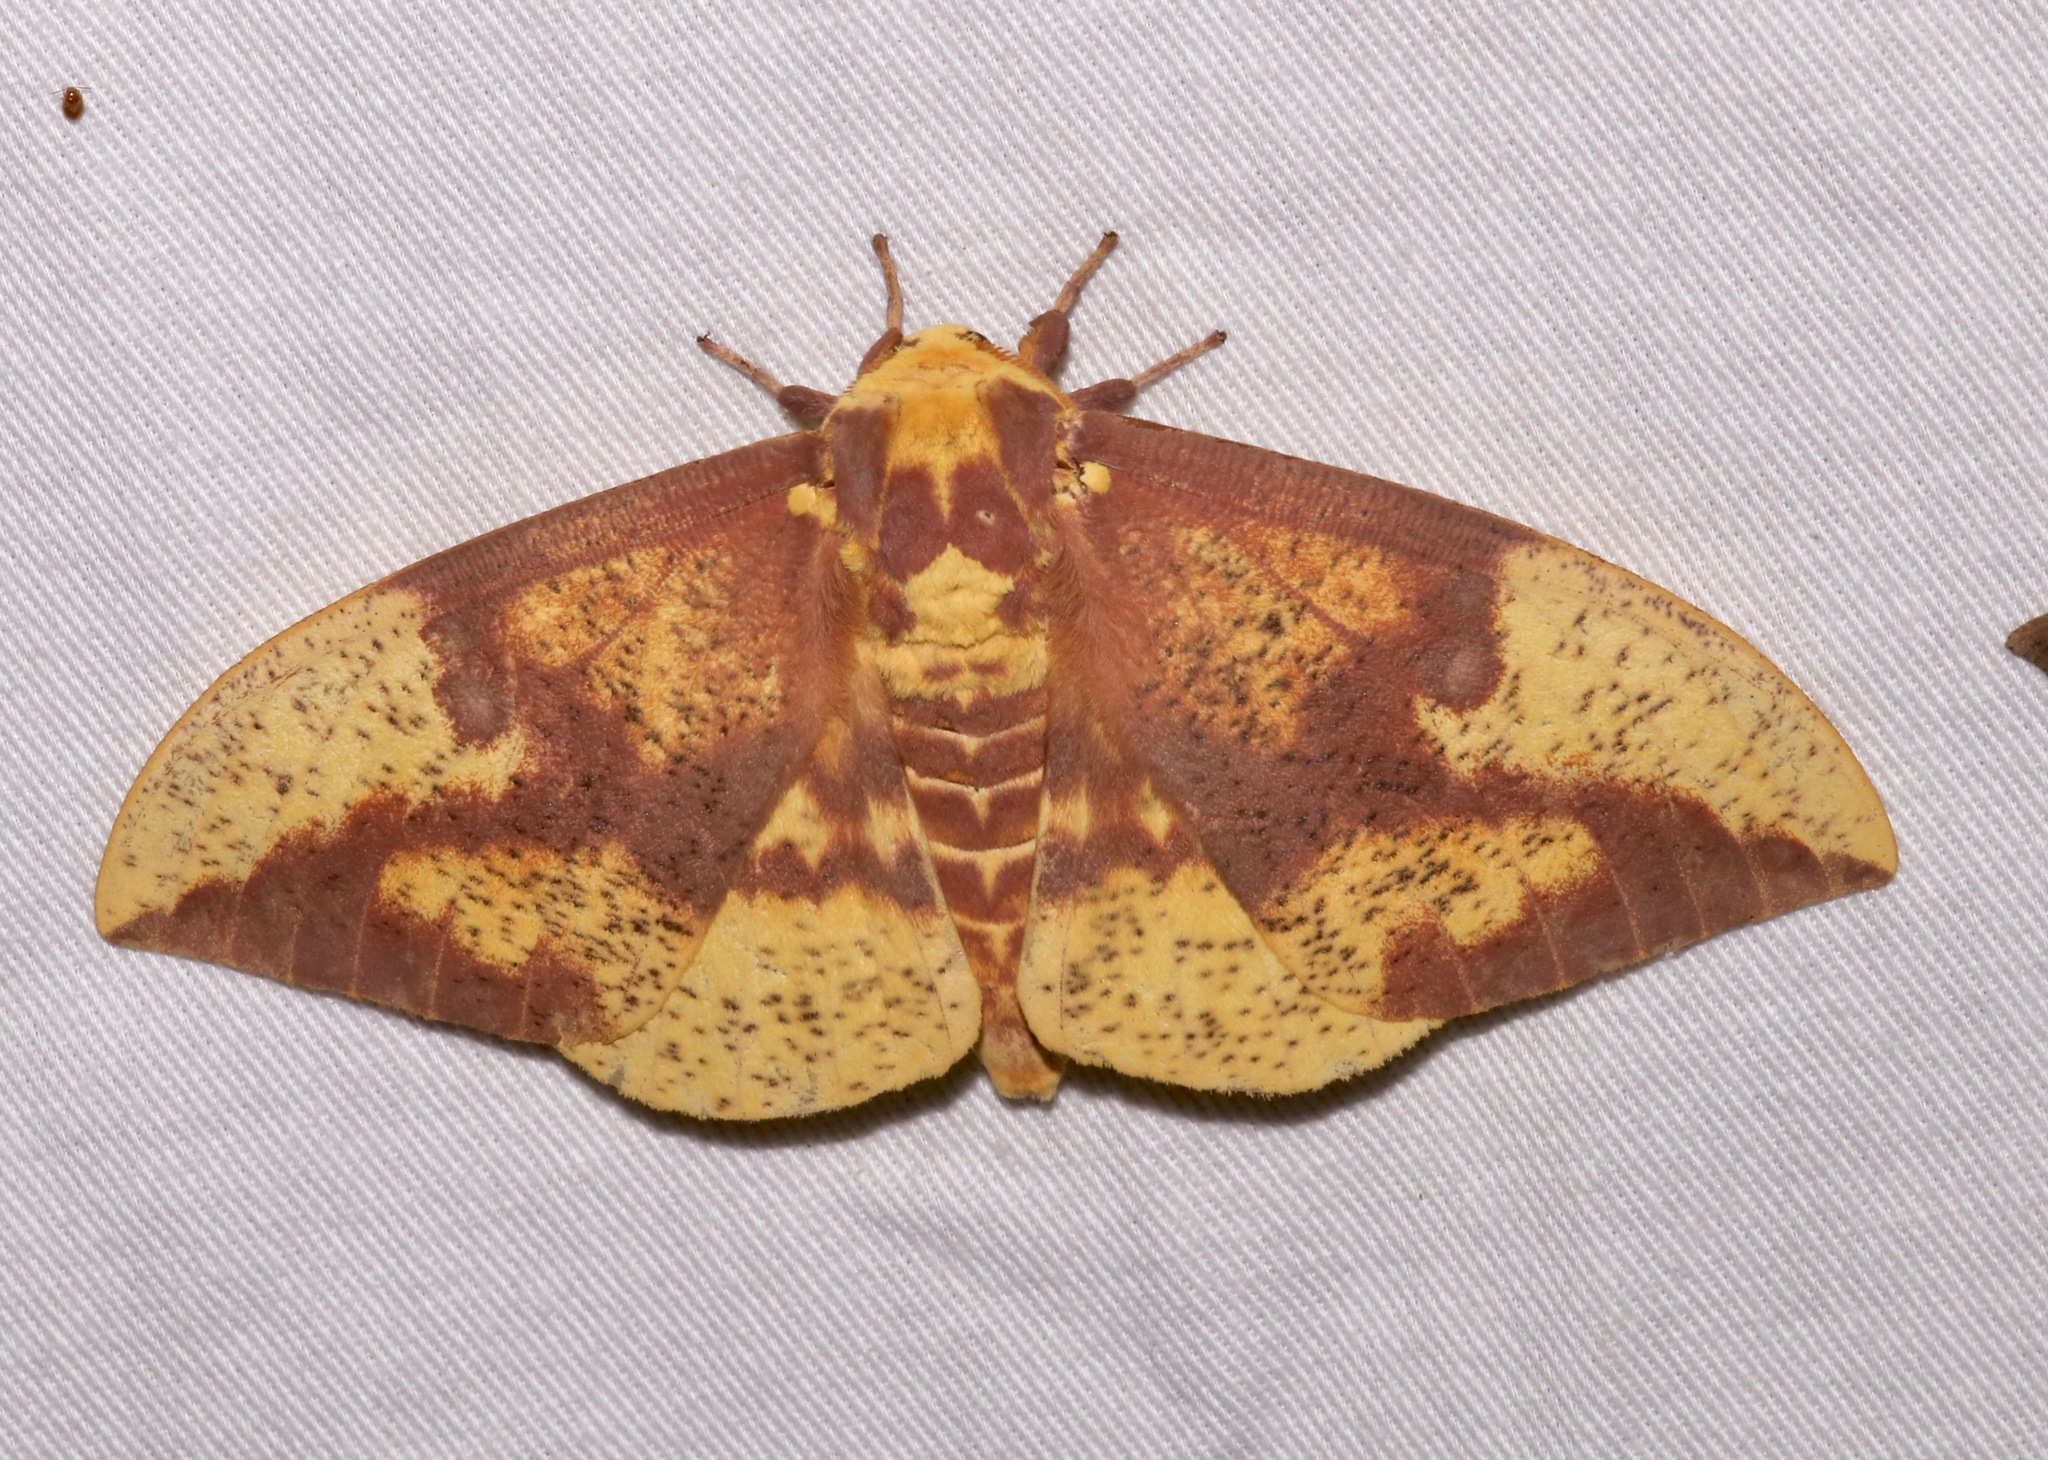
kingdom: Animalia
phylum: Arthropoda
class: Insecta
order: Lepidoptera
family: Saturniidae
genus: Eacles
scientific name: Eacles imperialis
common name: Imperial moth
